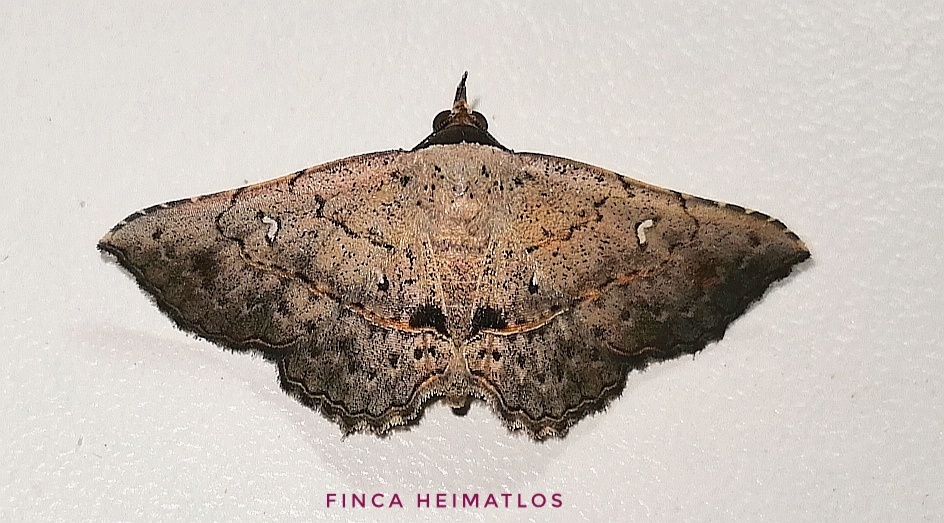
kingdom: Animalia
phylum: Arthropoda
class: Insecta
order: Lepidoptera
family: Erebidae
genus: Renodes
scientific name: Renodes curviluna
